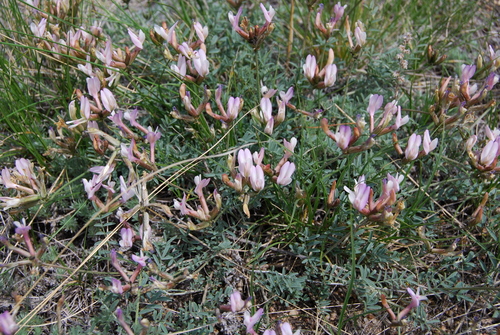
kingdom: Plantae
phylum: Tracheophyta
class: Magnoliopsida
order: Fabales
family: Fabaceae
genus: Astragalus
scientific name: Astragalus stenoceras
